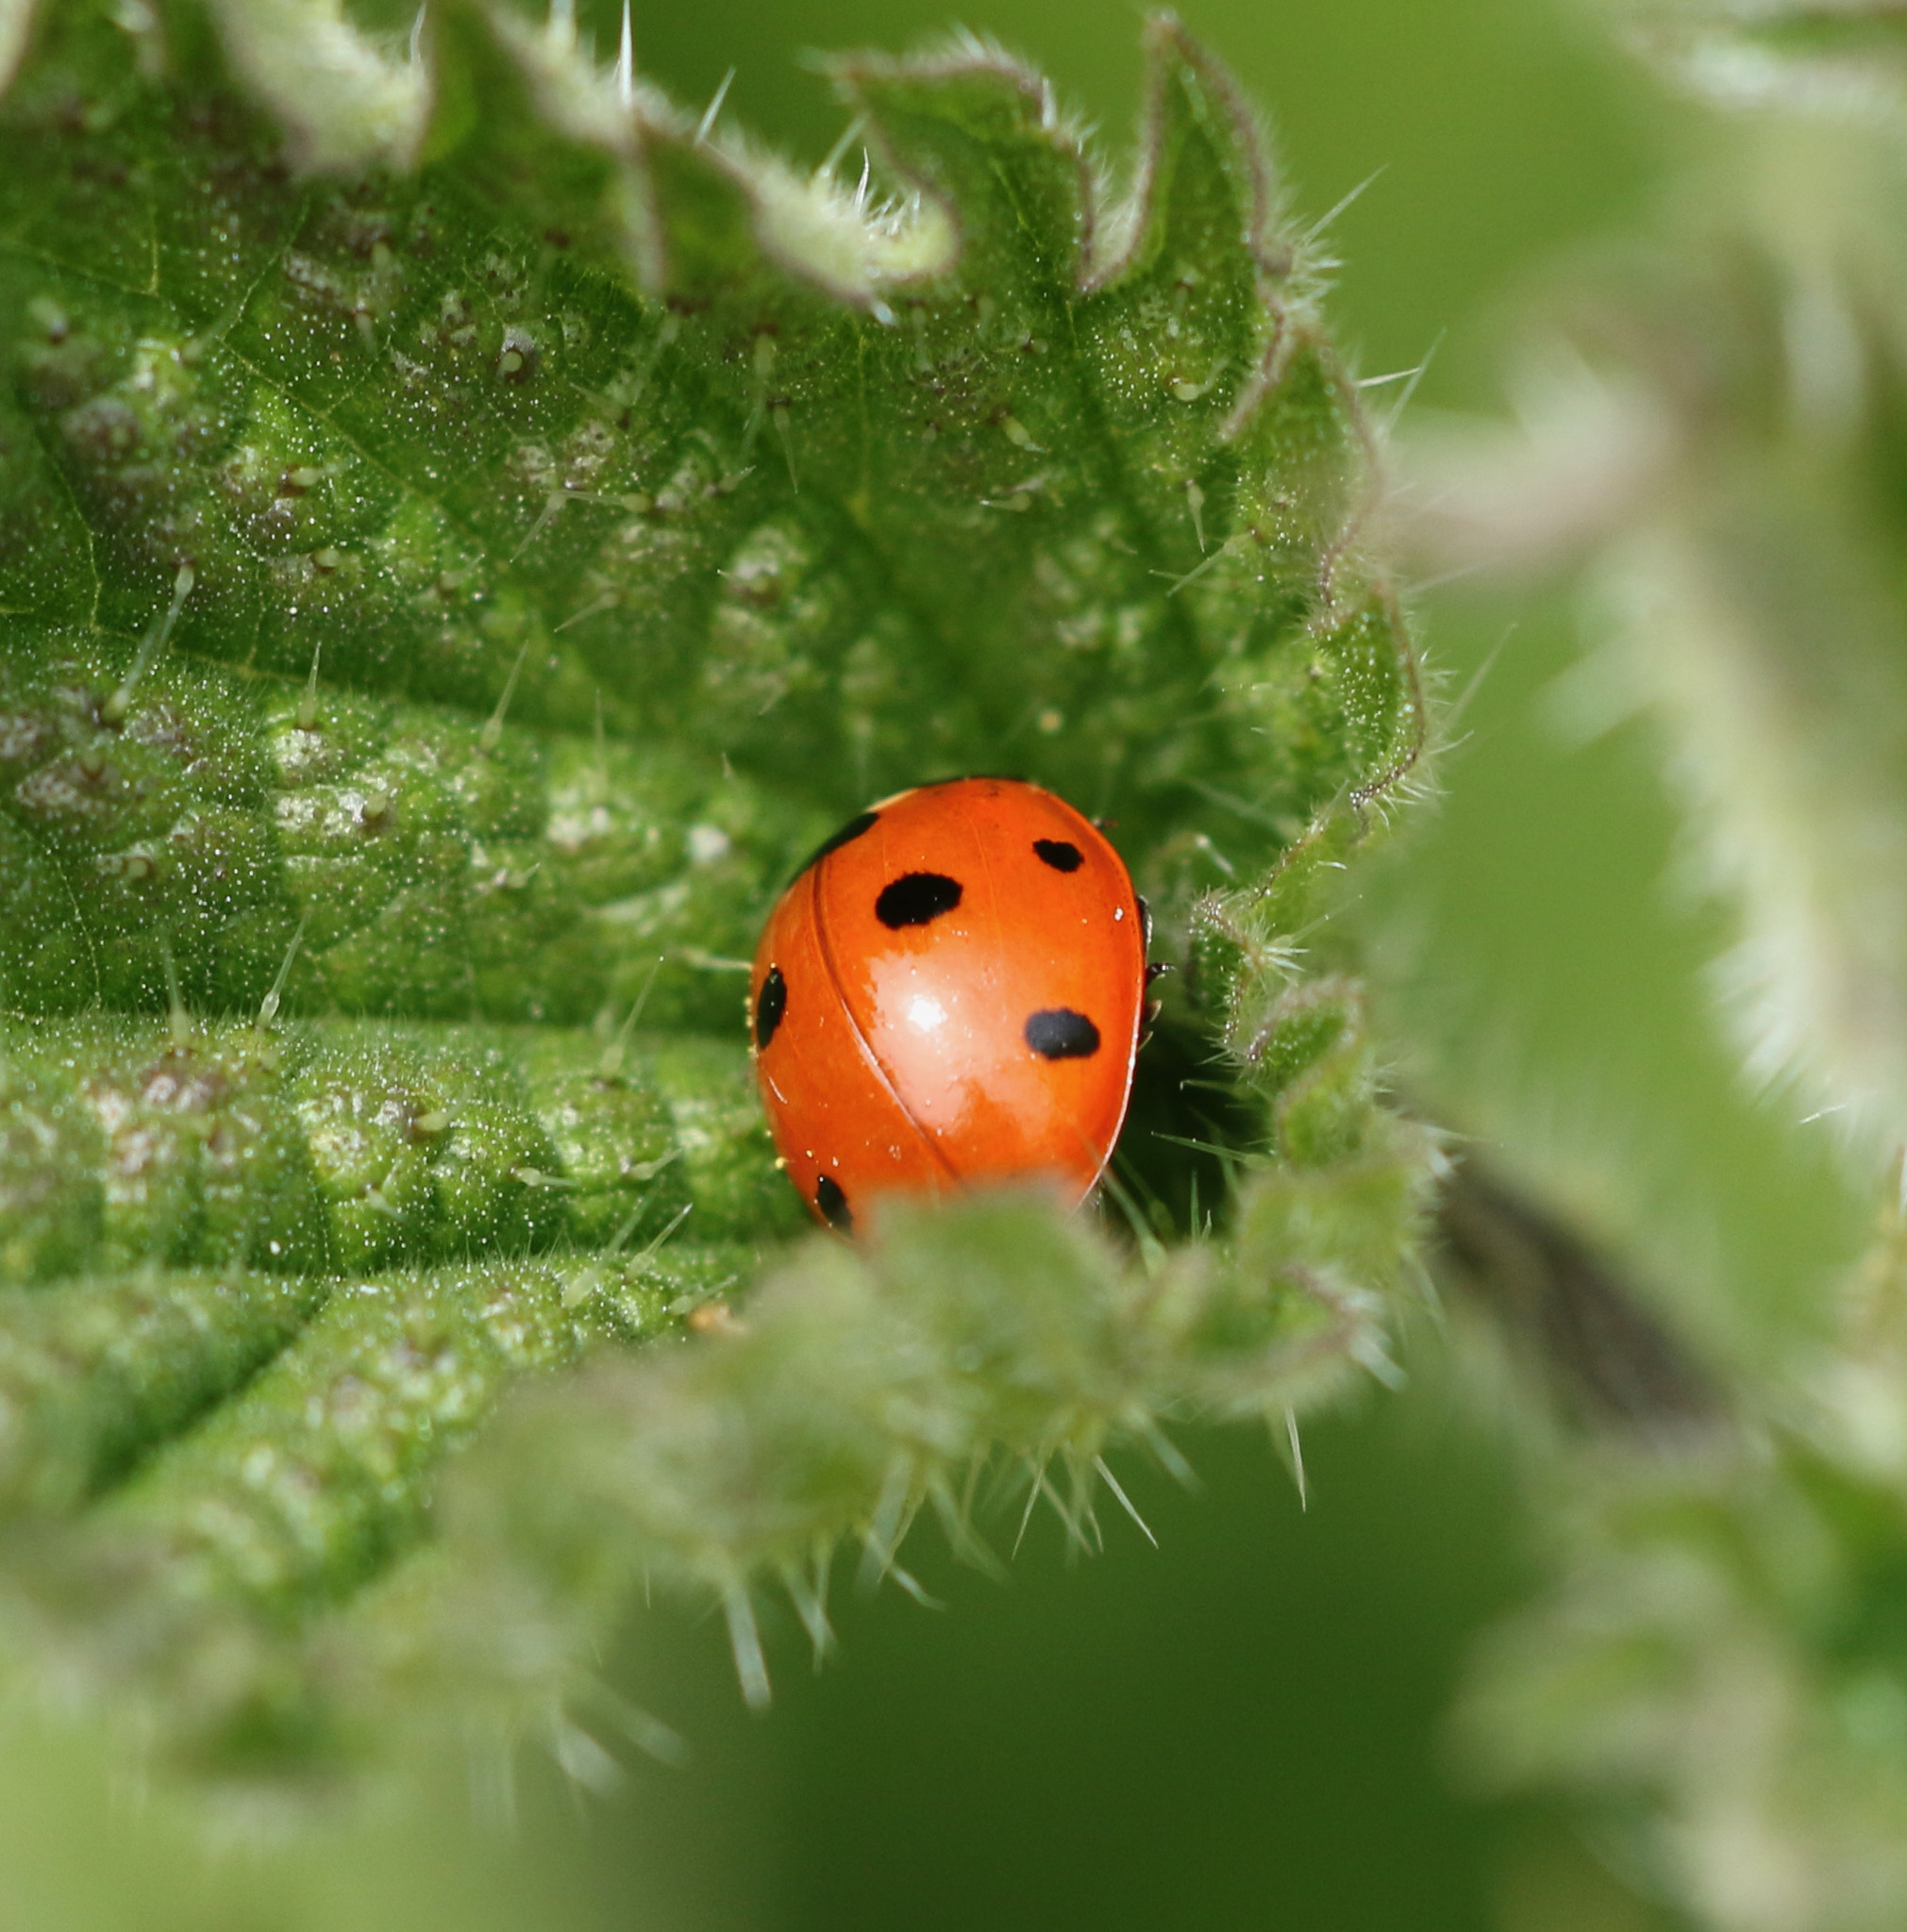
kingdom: Animalia
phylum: Arthropoda
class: Insecta
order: Coleoptera
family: Coccinellidae
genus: Coccinella
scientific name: Coccinella septempunctata
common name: Sevenspotted lady beetle
